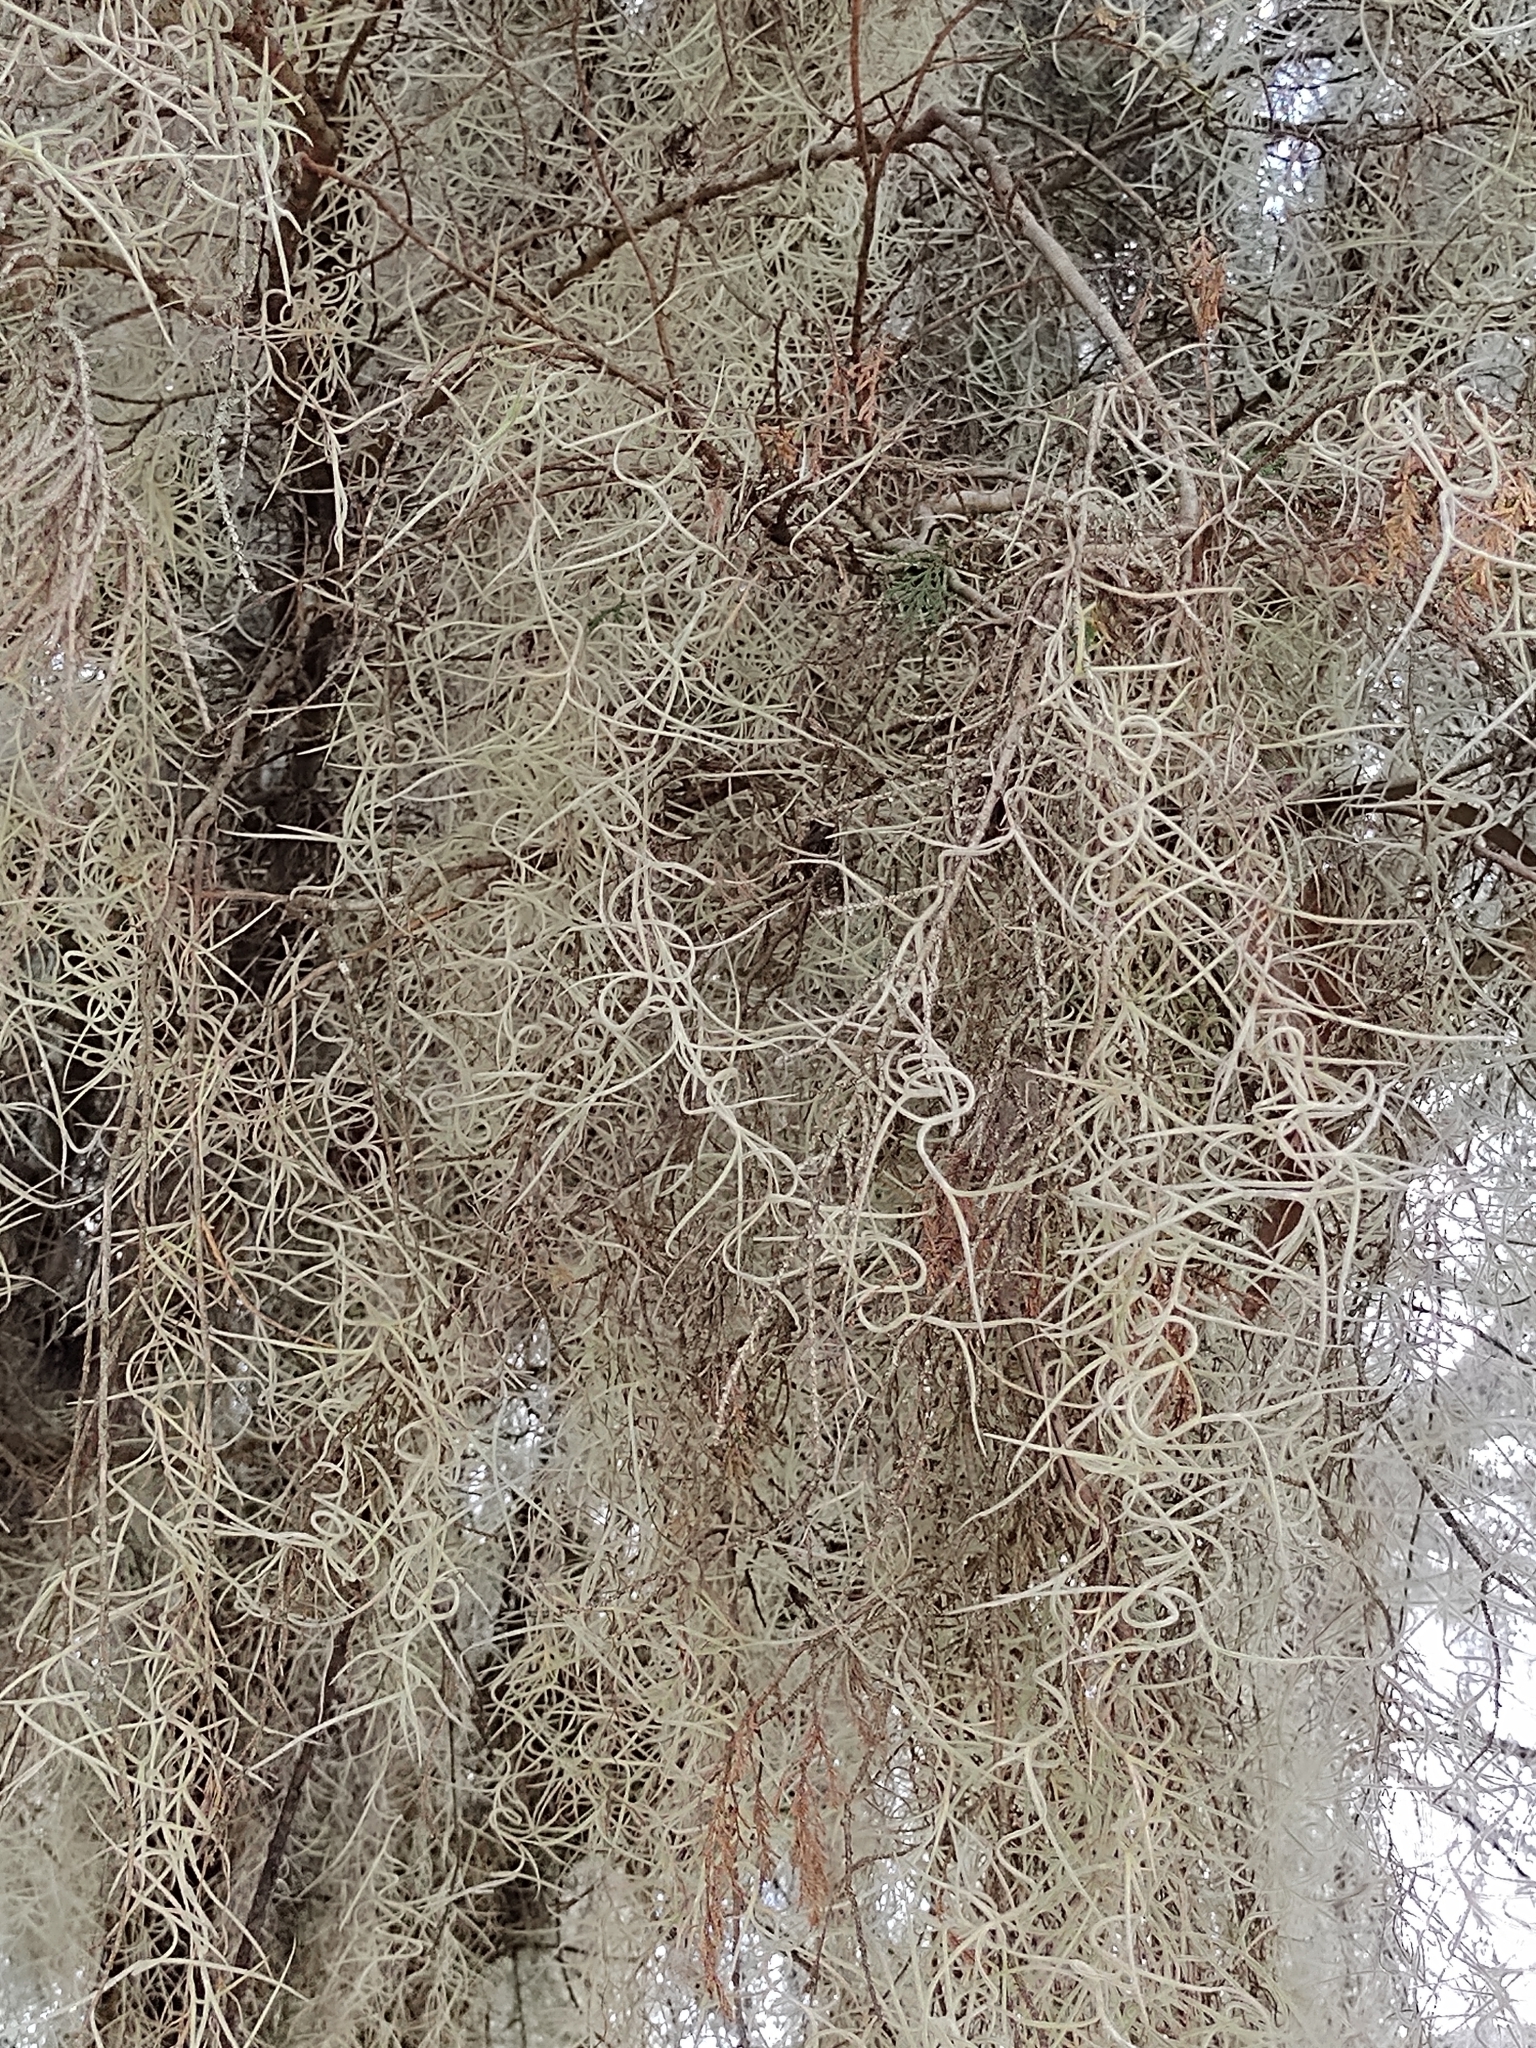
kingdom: Plantae
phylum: Tracheophyta
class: Liliopsida
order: Poales
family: Bromeliaceae
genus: Tillandsia
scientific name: Tillandsia usneoides
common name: Spanish moss
